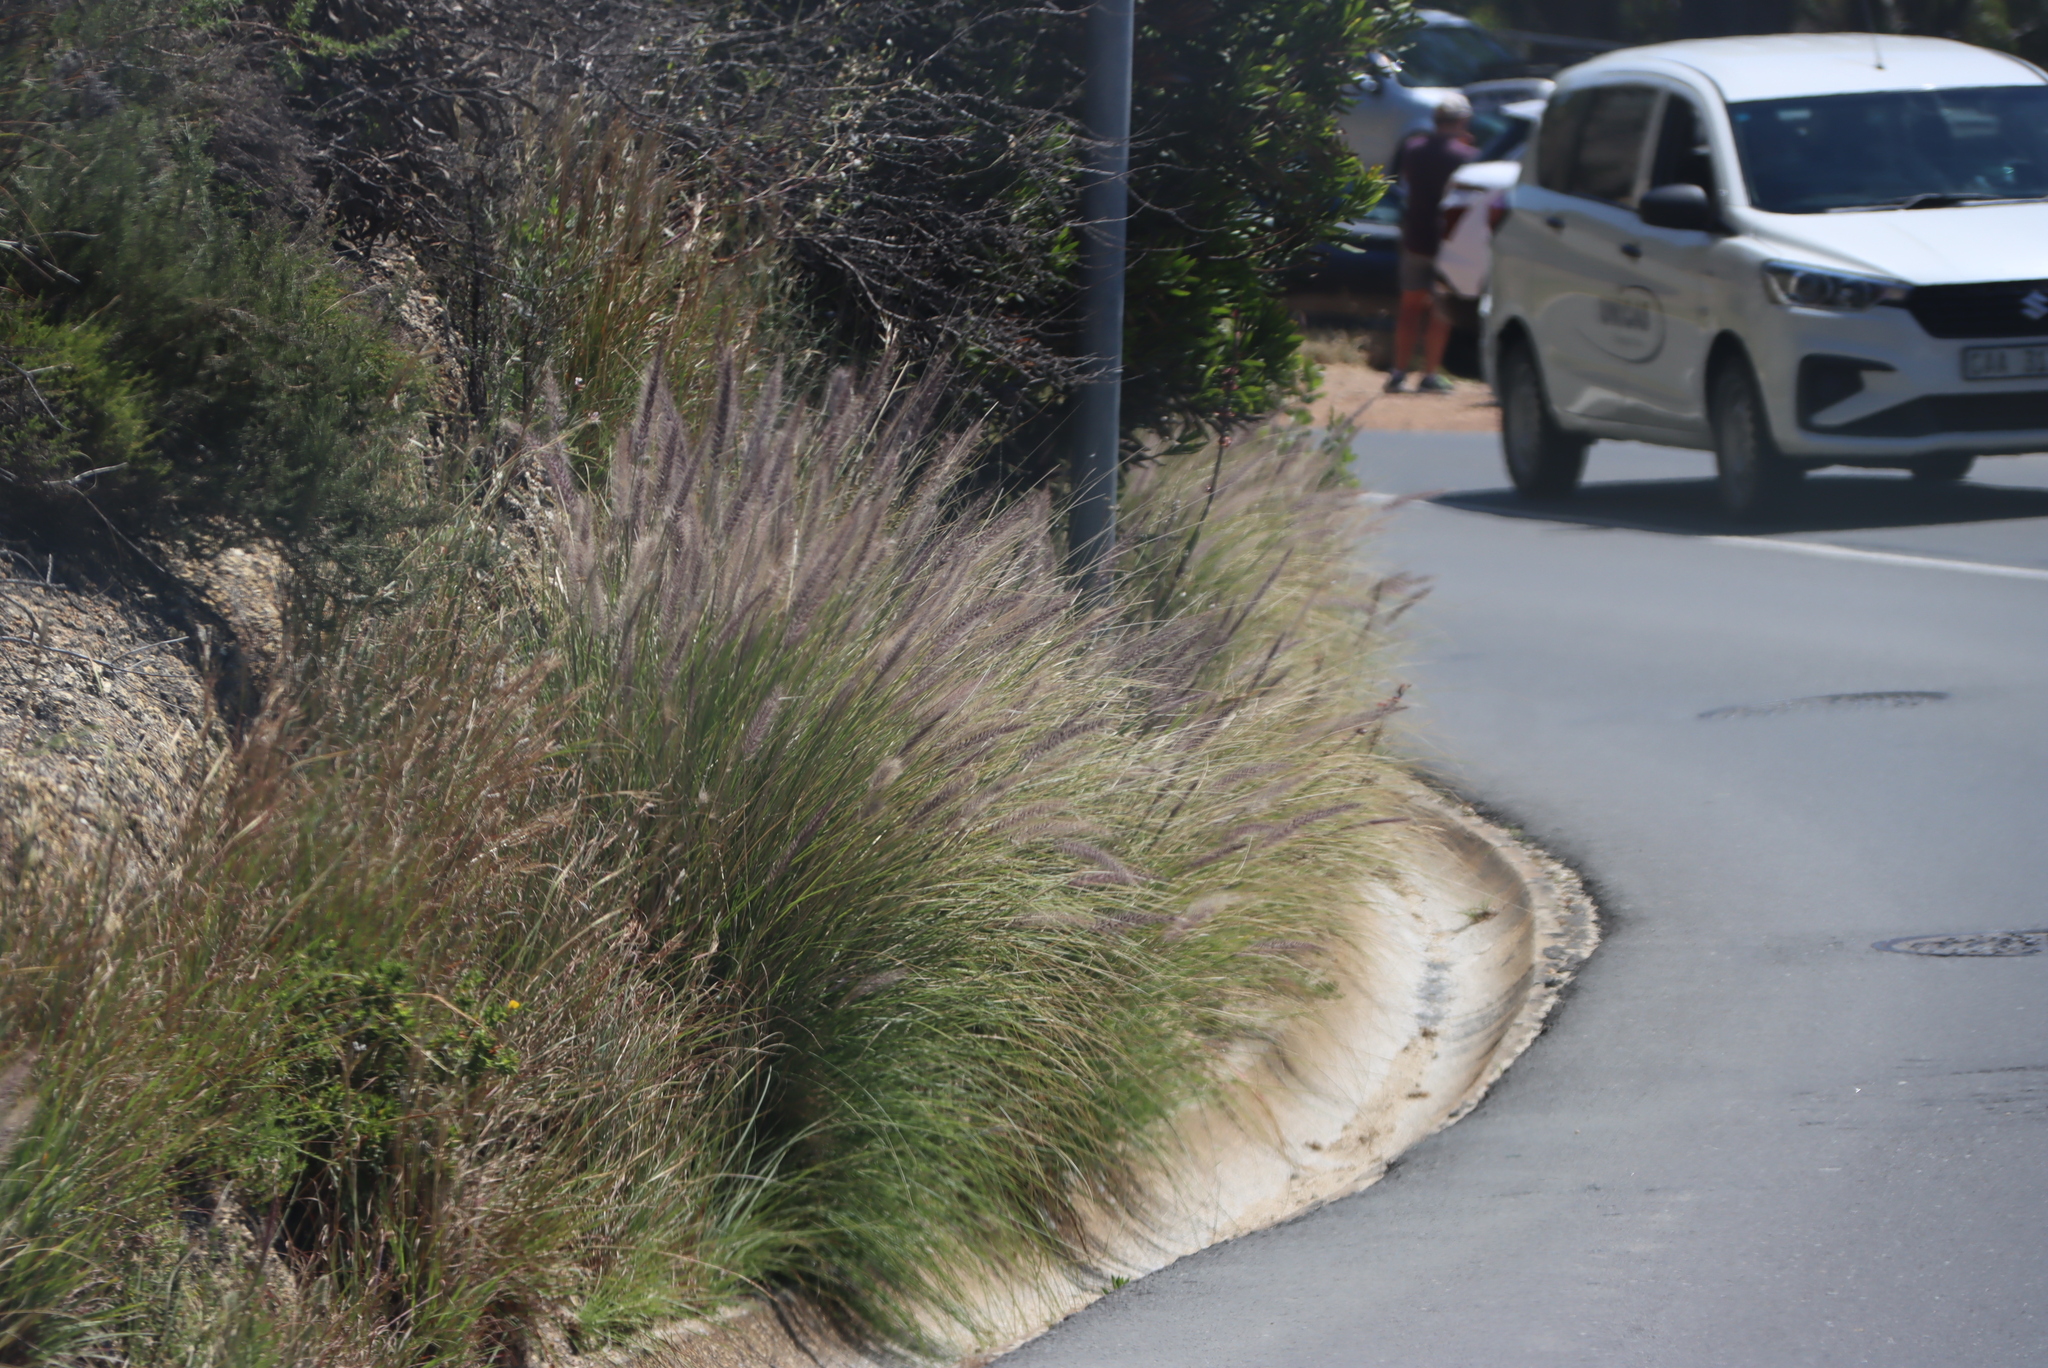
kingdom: Plantae
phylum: Tracheophyta
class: Liliopsida
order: Poales
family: Poaceae
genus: Cenchrus
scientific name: Cenchrus setaceus
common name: Crimson fountaingrass
